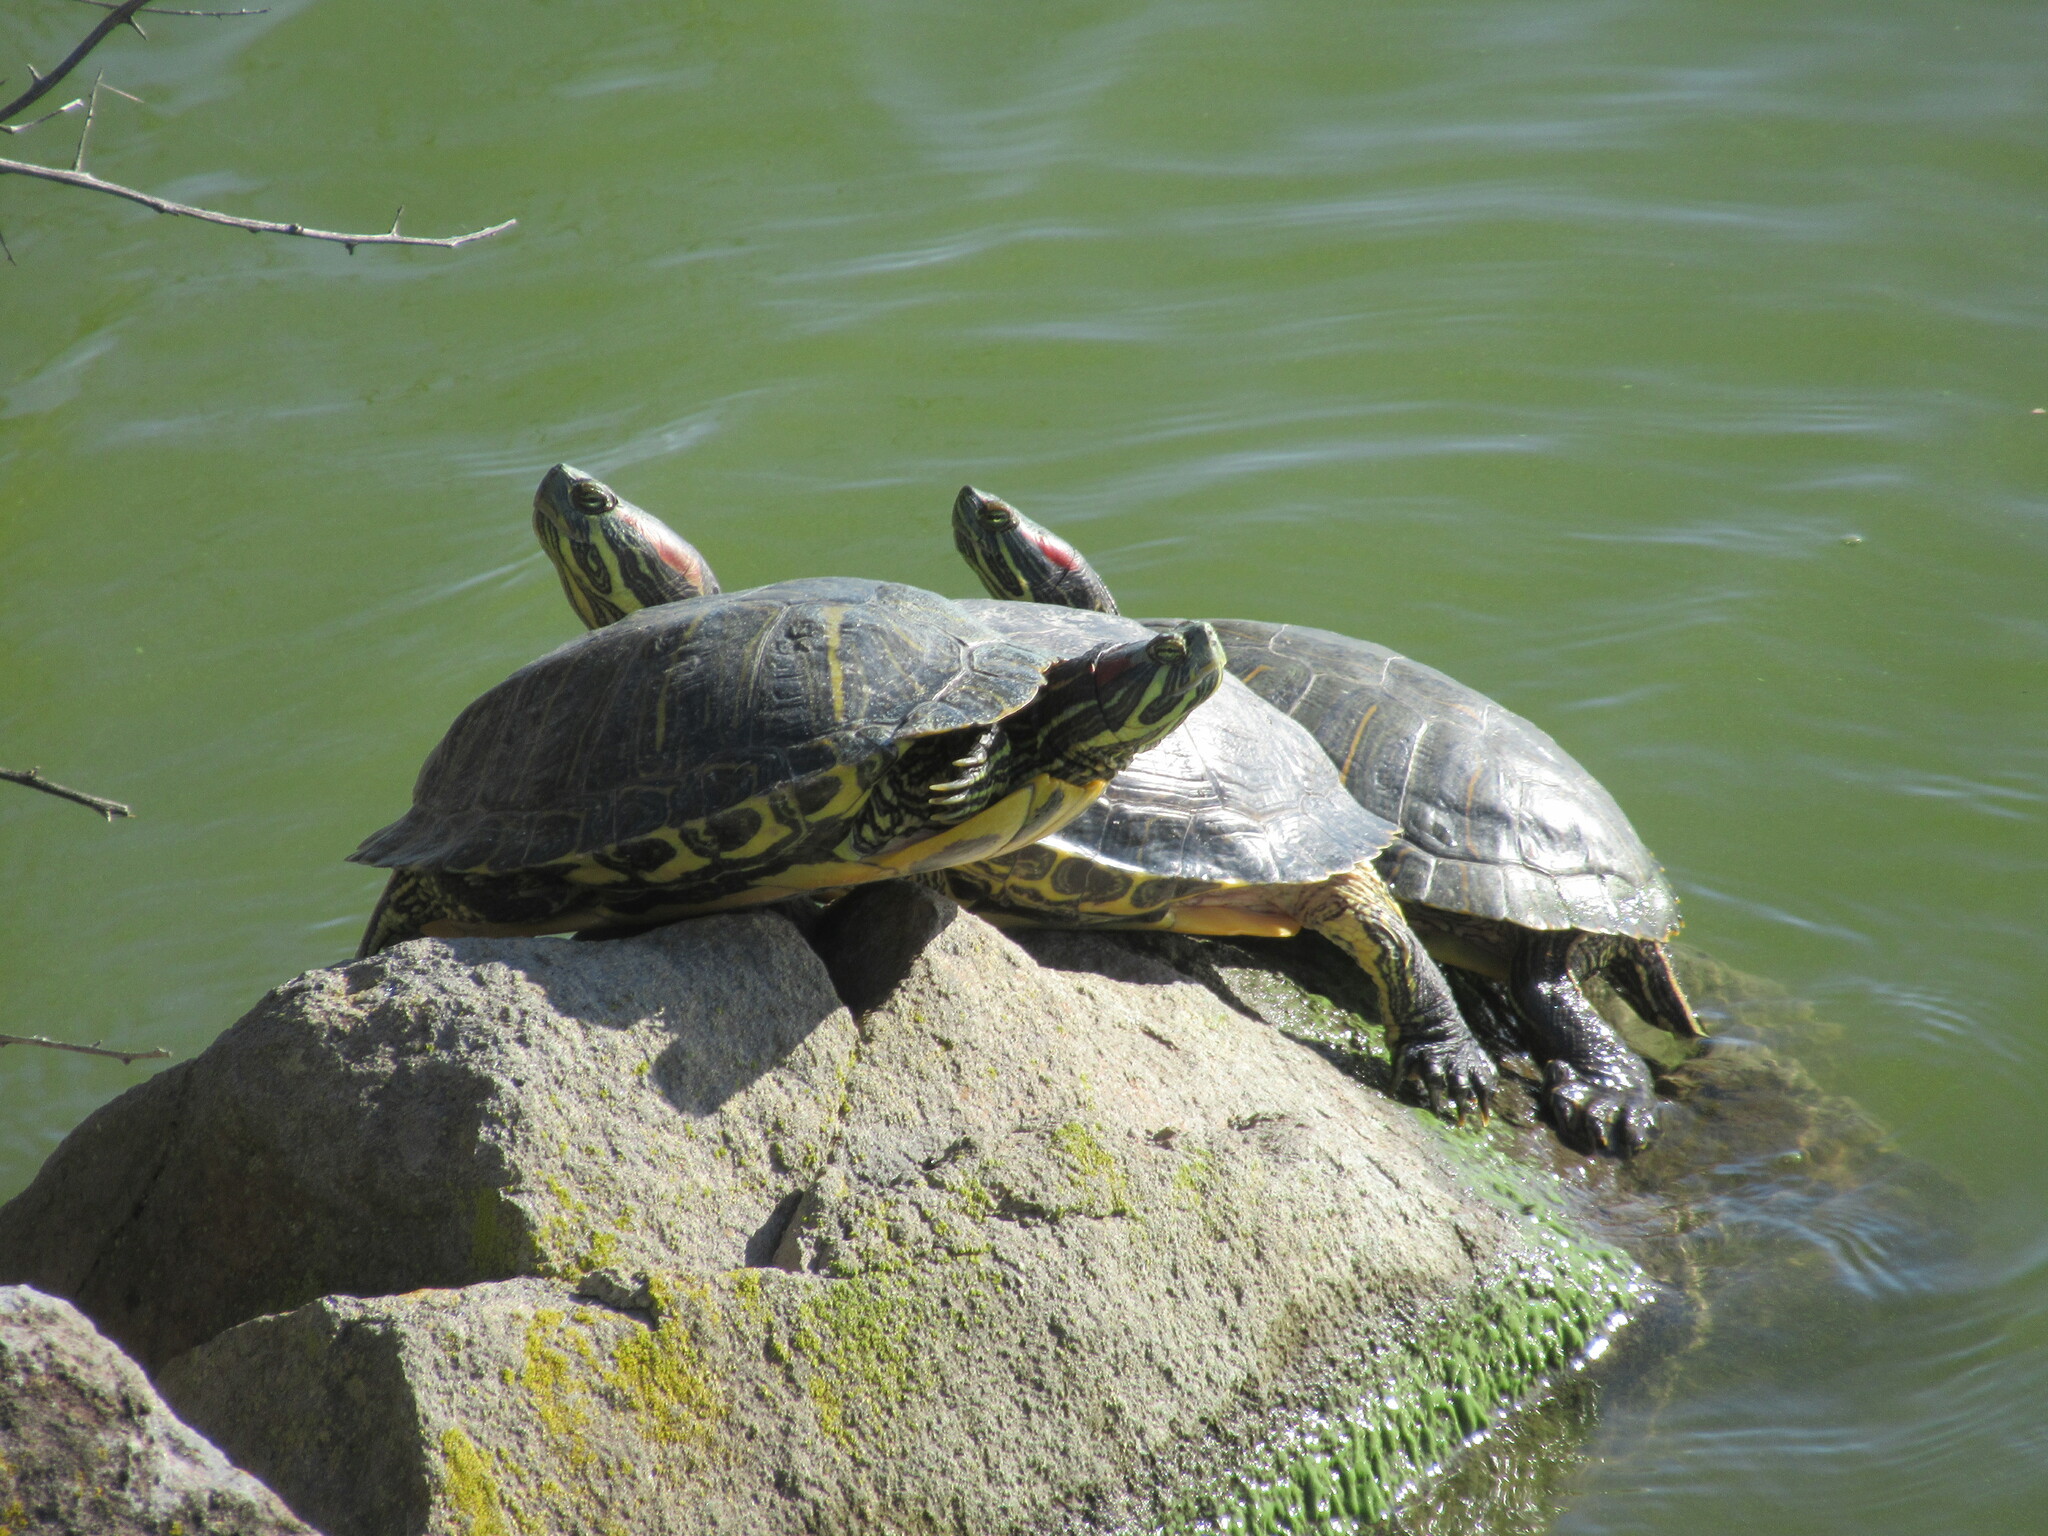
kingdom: Animalia
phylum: Chordata
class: Testudines
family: Emydidae
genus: Trachemys
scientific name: Trachemys scripta
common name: Slider
